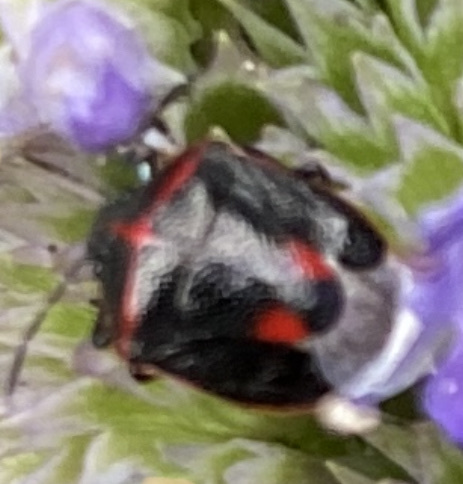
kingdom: Animalia
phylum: Arthropoda
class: Insecta
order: Hemiptera
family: Pentatomidae
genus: Cosmopepla
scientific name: Cosmopepla lintneriana
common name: Twice-stabbed stink bug
